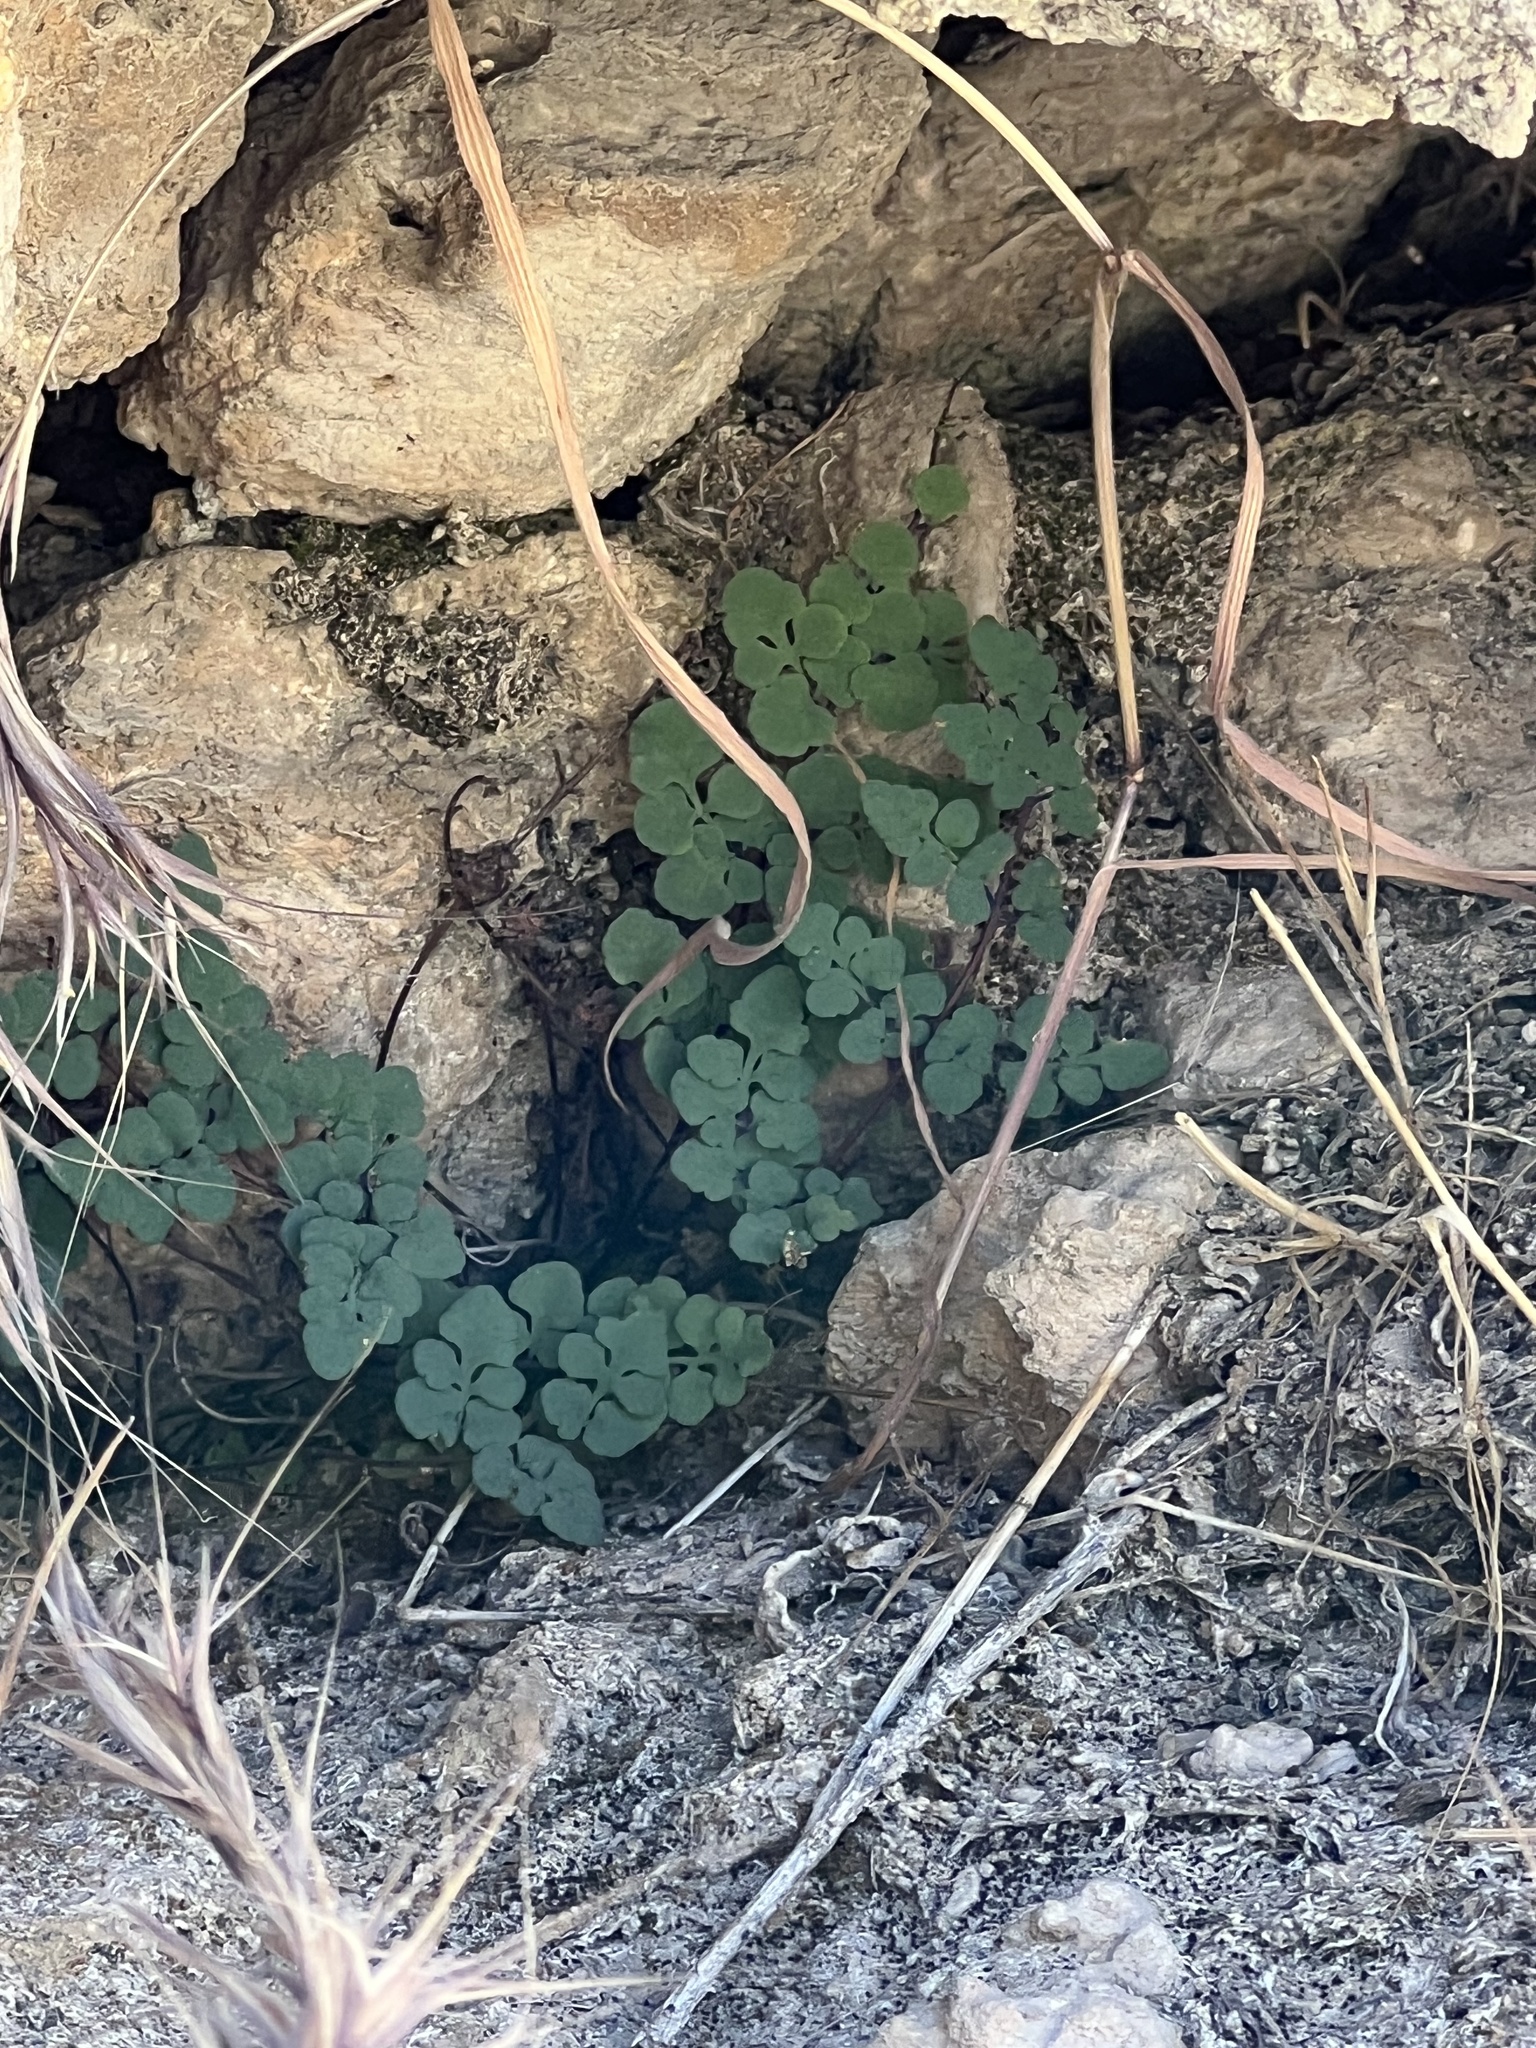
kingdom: Plantae
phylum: Tracheophyta
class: Polypodiopsida
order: Polypodiales
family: Pteridaceae
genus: Argyrochosma
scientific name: Argyrochosma jonesii
